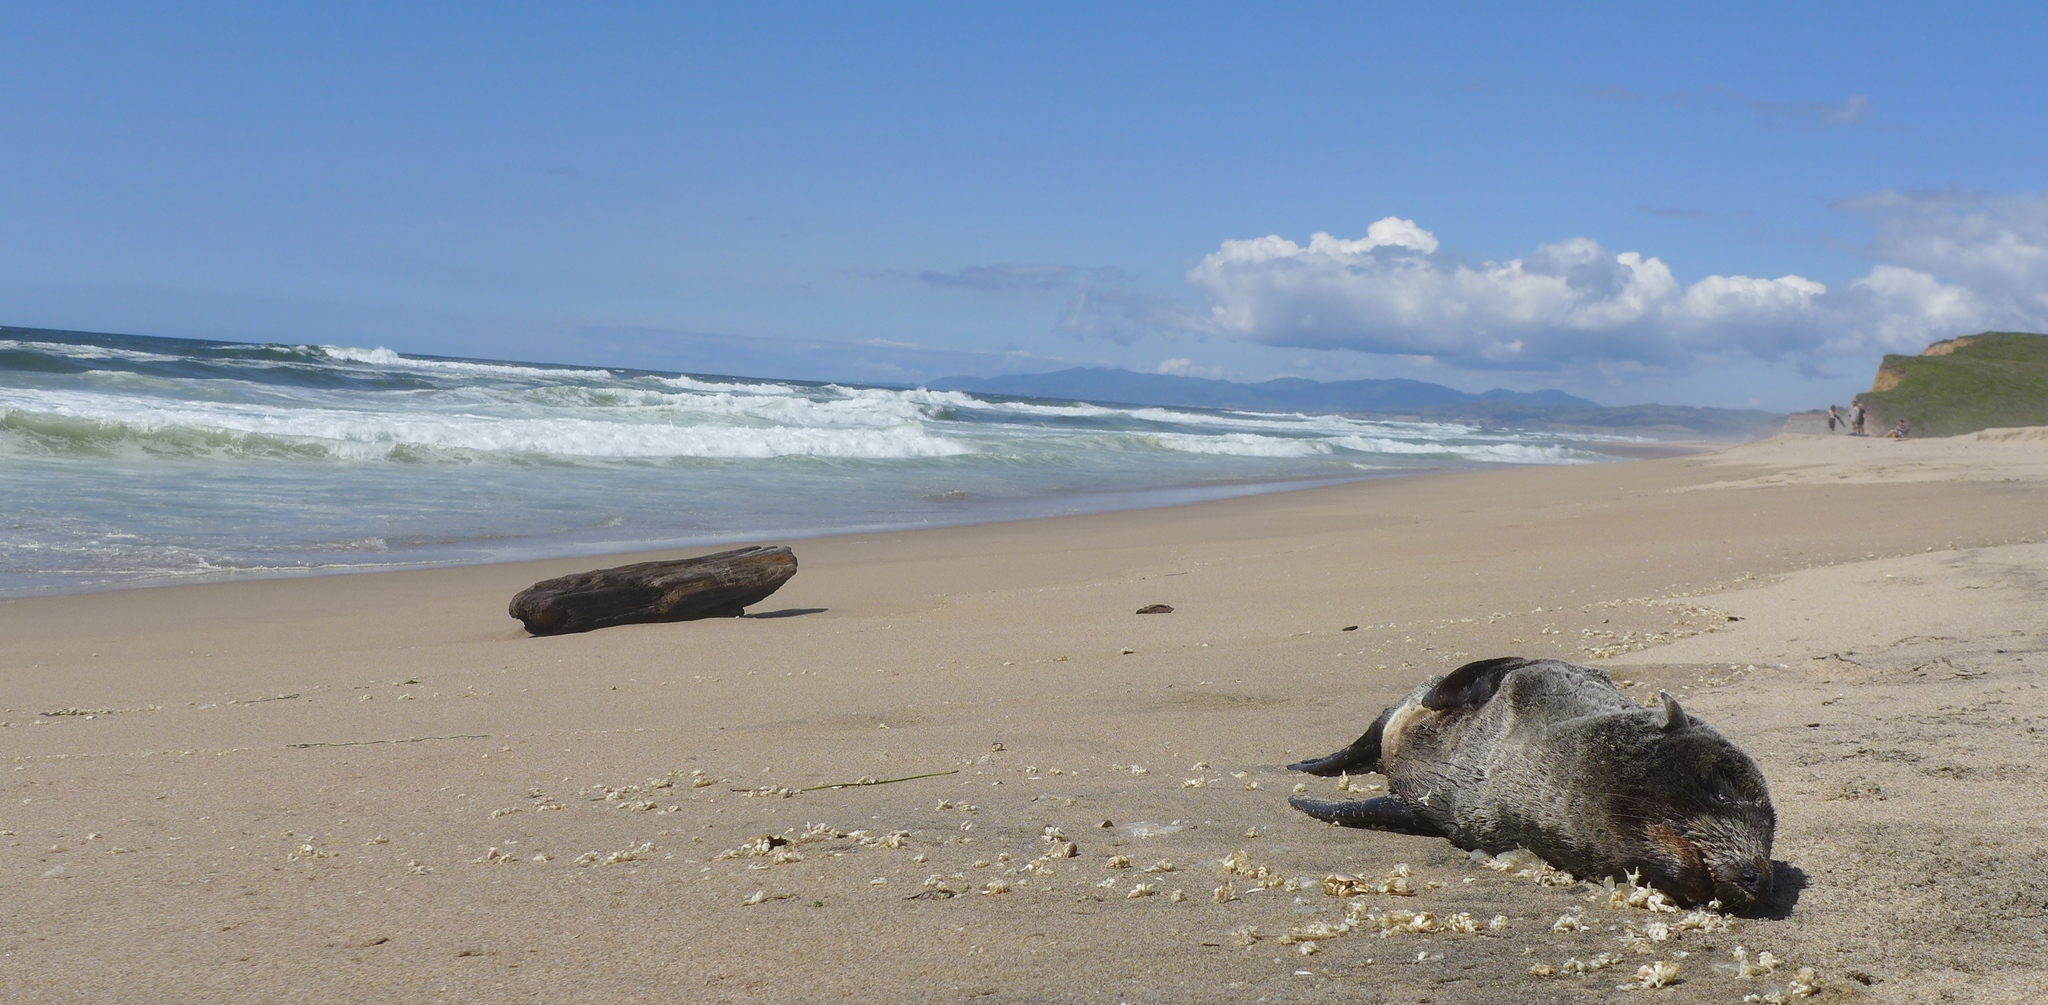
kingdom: Animalia
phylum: Chordata
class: Mammalia
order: Carnivora
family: Otariidae
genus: Arctocephalus
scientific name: Arctocephalus philippii
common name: Juan fernández fur seal
